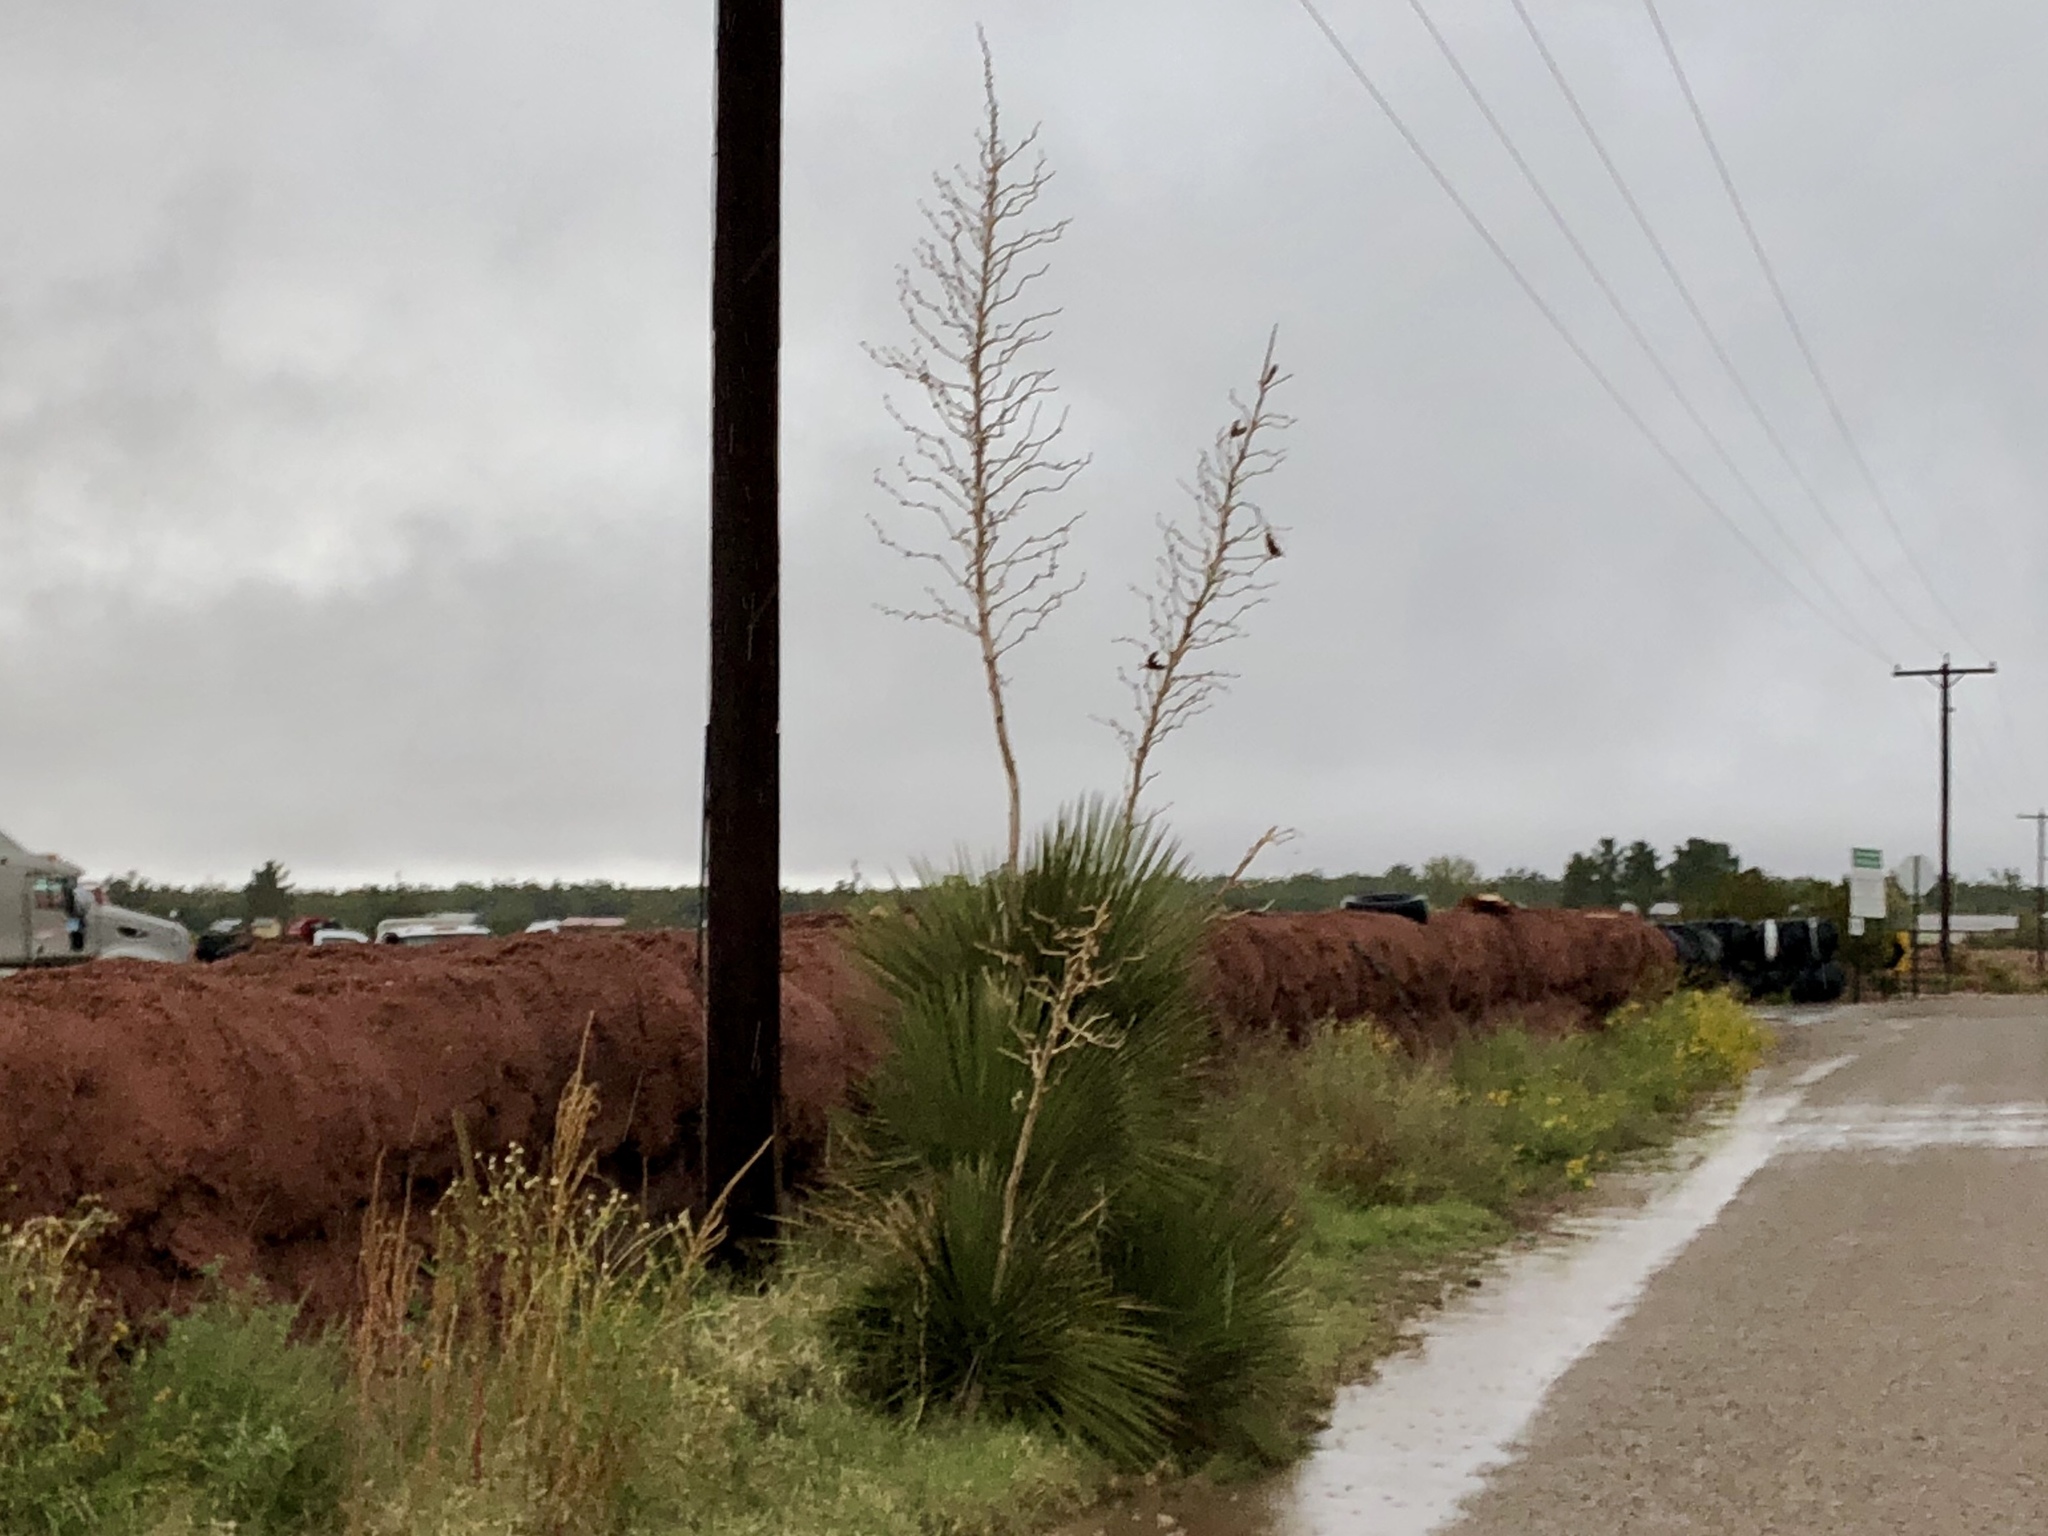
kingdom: Plantae
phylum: Tracheophyta
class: Liliopsida
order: Asparagales
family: Asparagaceae
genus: Yucca
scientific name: Yucca elata
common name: Palmella
